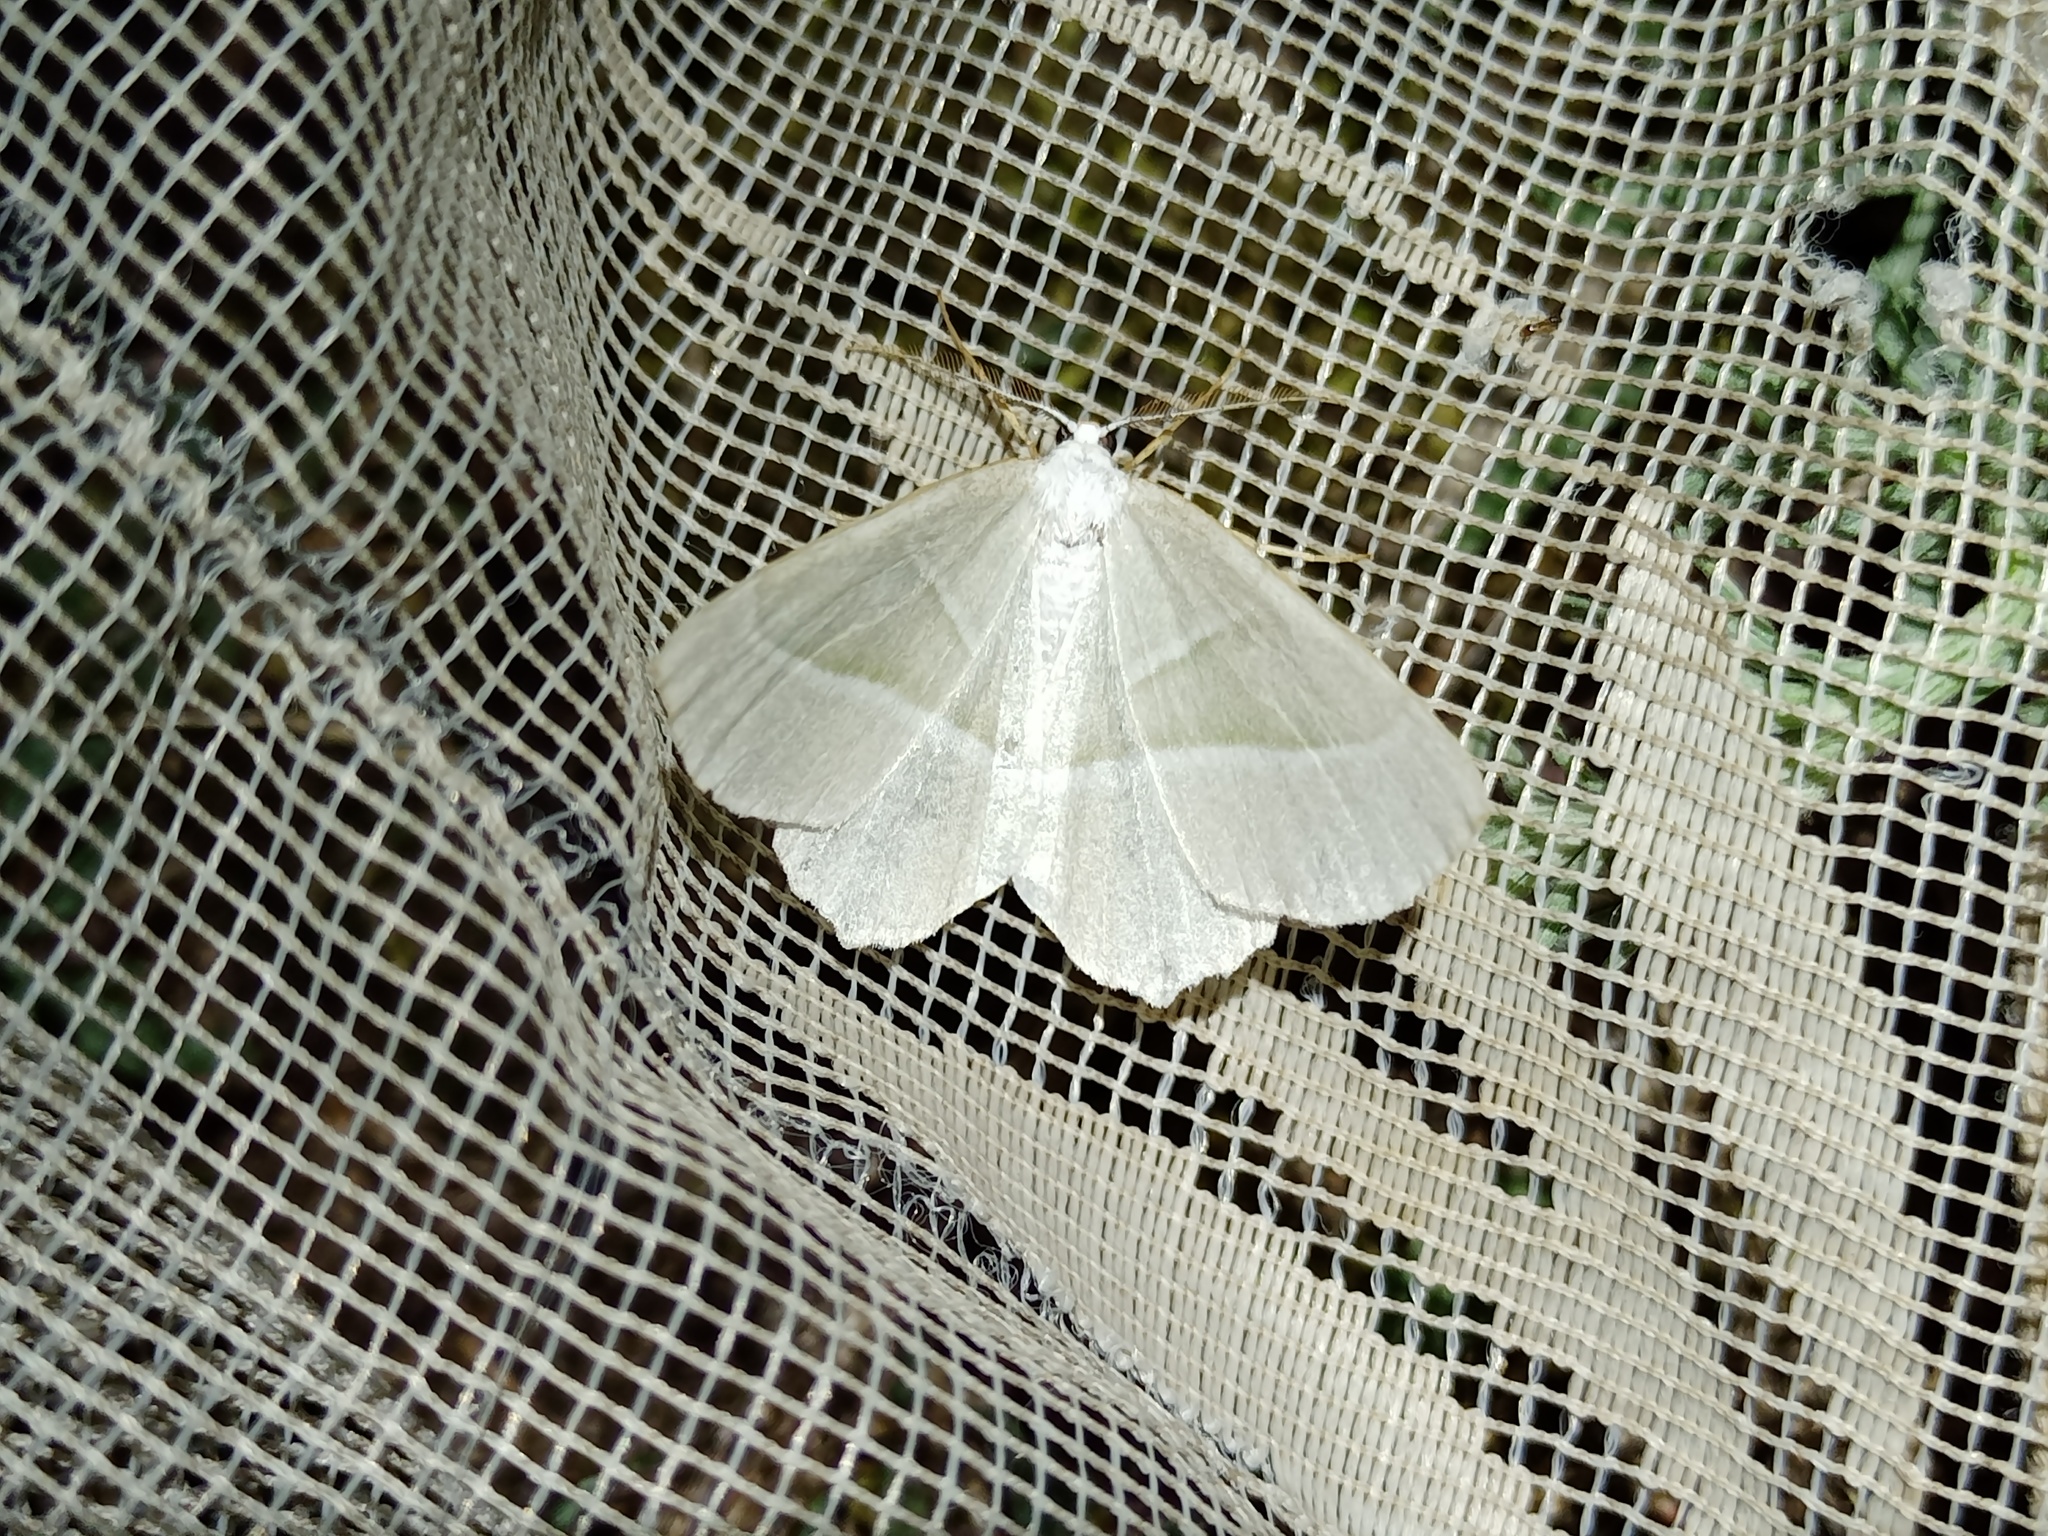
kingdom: Animalia
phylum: Arthropoda
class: Insecta
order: Lepidoptera
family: Geometridae
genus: Campaea
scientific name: Campaea margaritaria
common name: Light emerald
